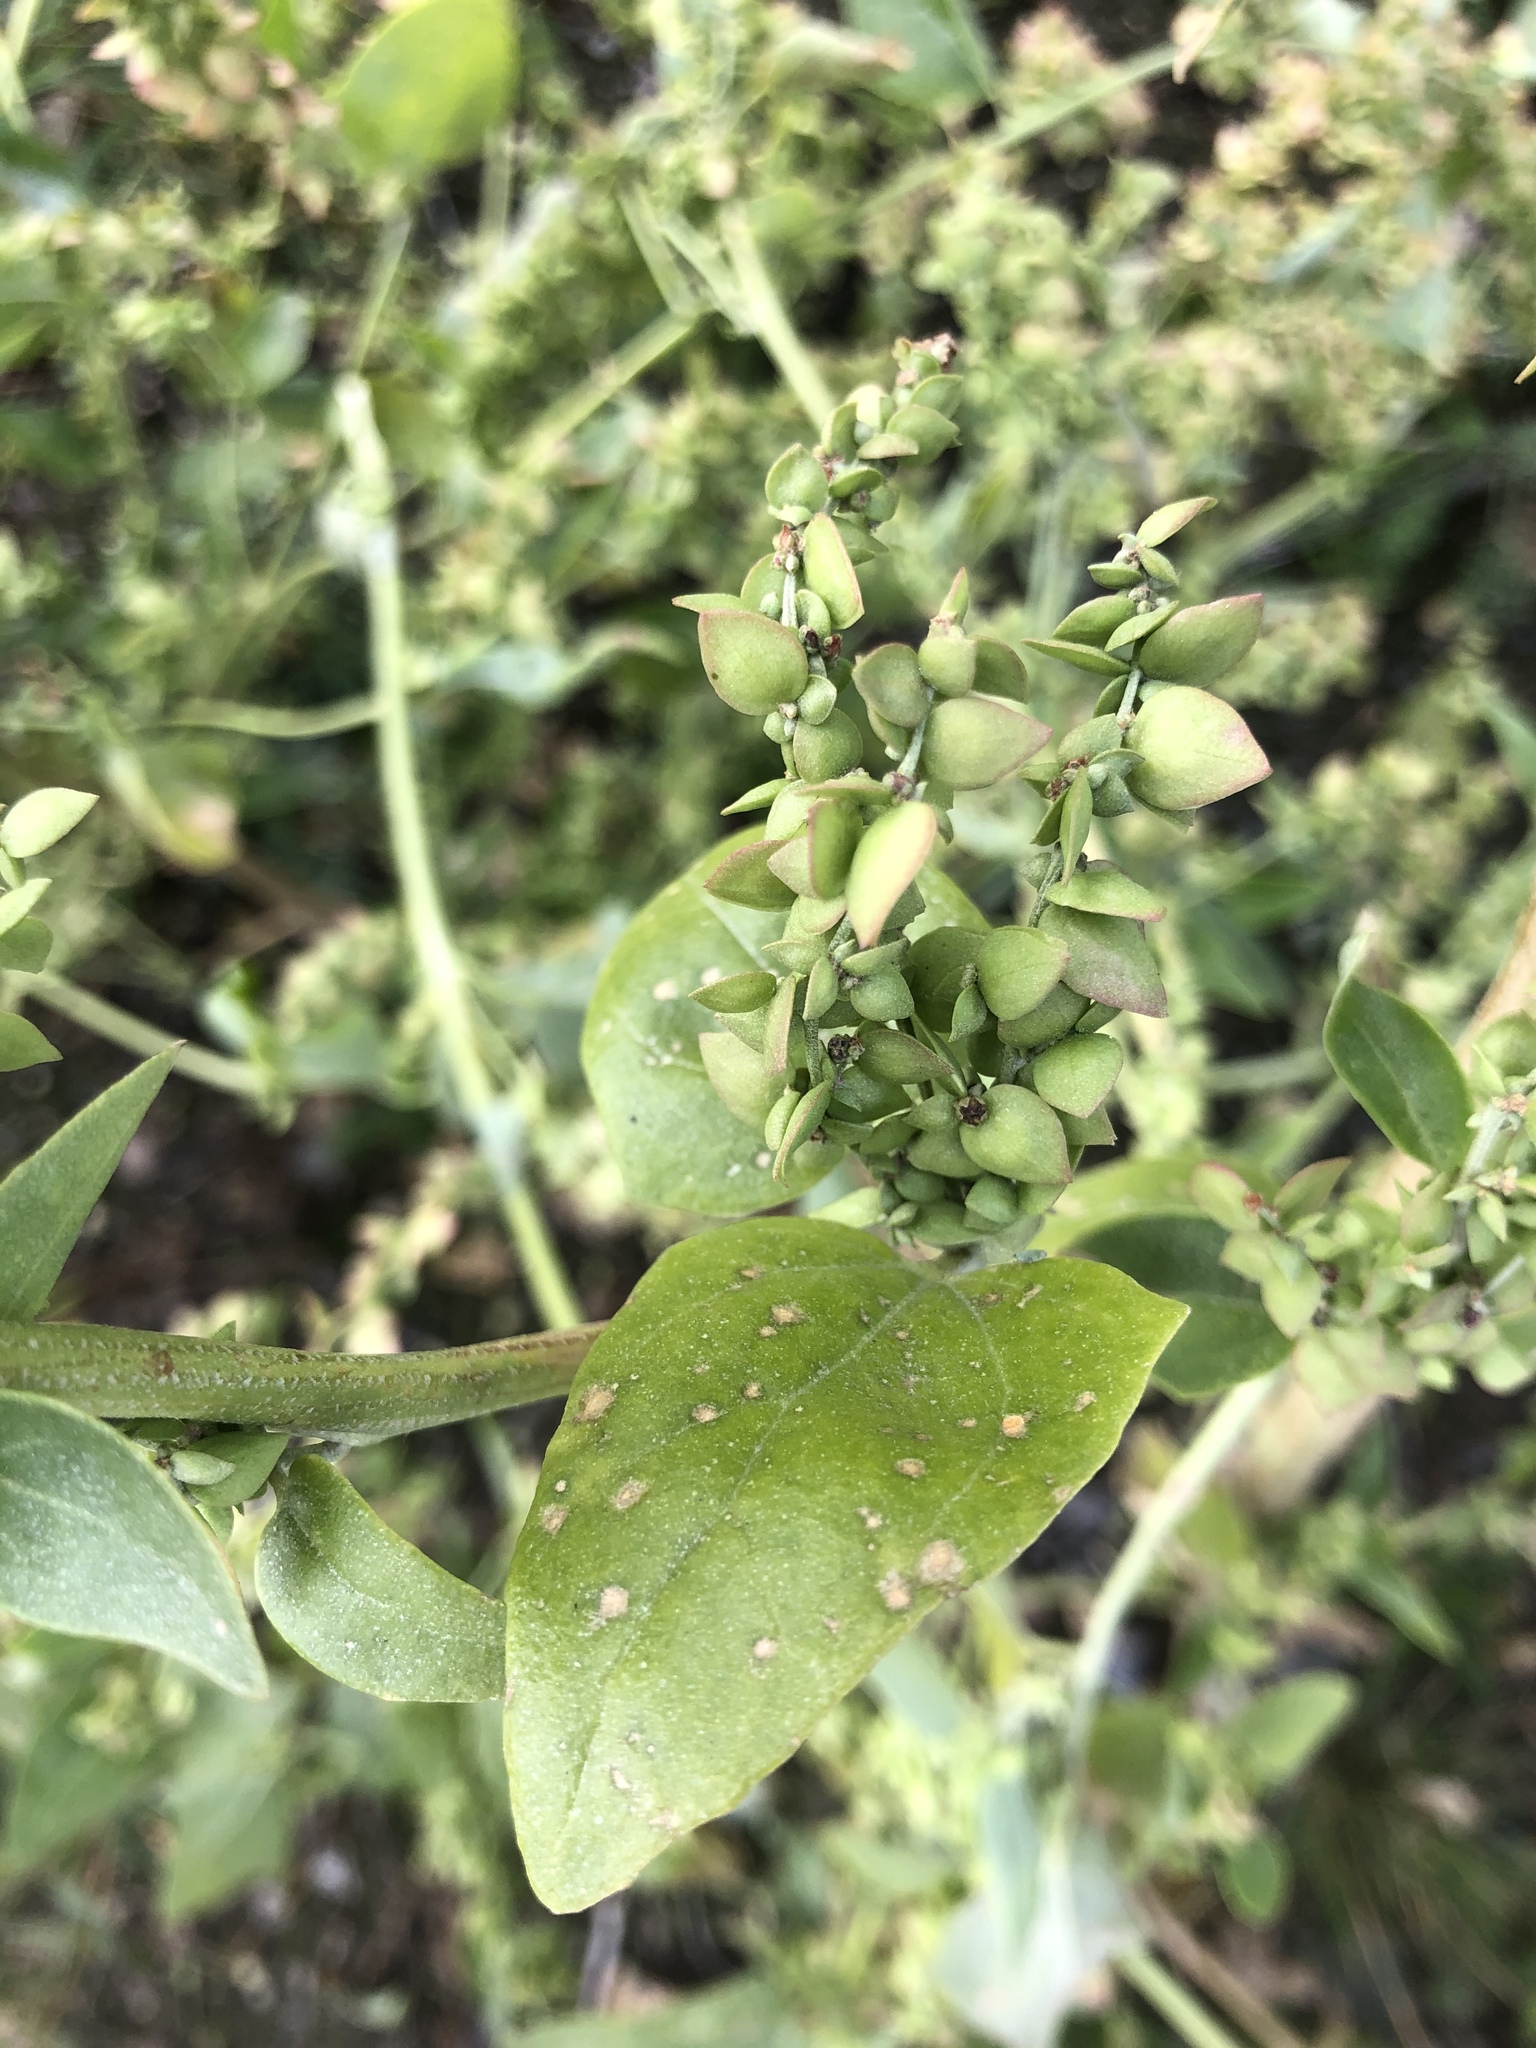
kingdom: Plantae
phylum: Tracheophyta
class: Magnoliopsida
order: Caryophyllales
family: Amaranthaceae
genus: Atriplex
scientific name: Atriplex sagittata
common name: Purple orache
